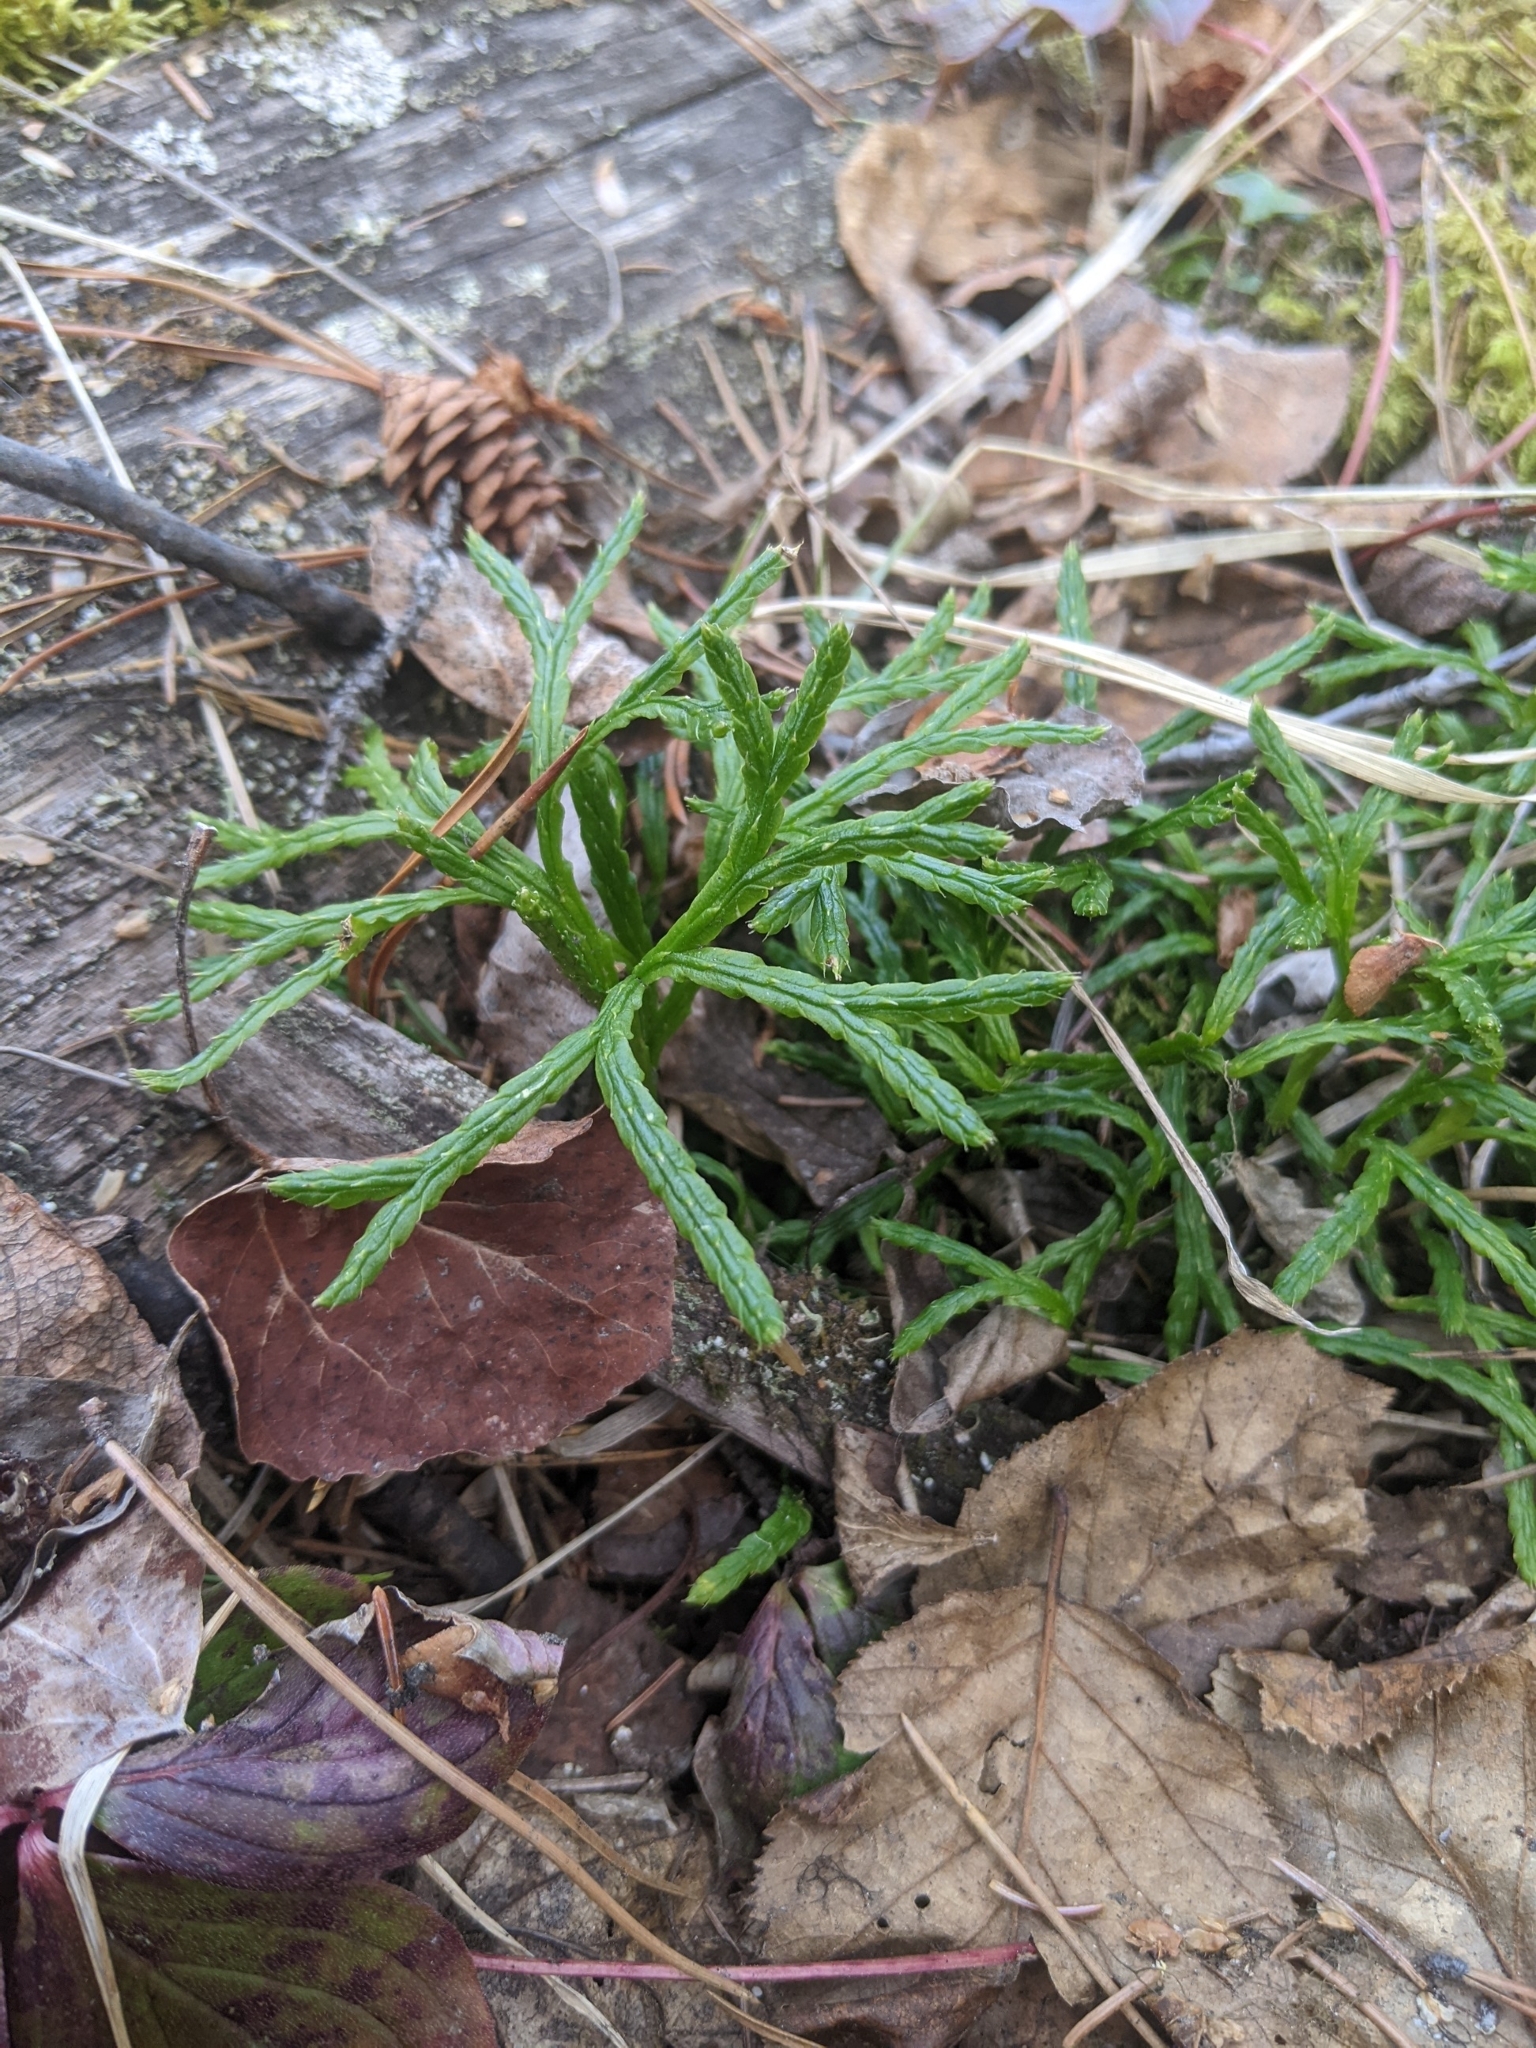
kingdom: Plantae
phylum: Tracheophyta
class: Lycopodiopsida
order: Lycopodiales
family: Lycopodiaceae
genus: Diphasiastrum
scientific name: Diphasiastrum complanatum
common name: Northern running-pine
